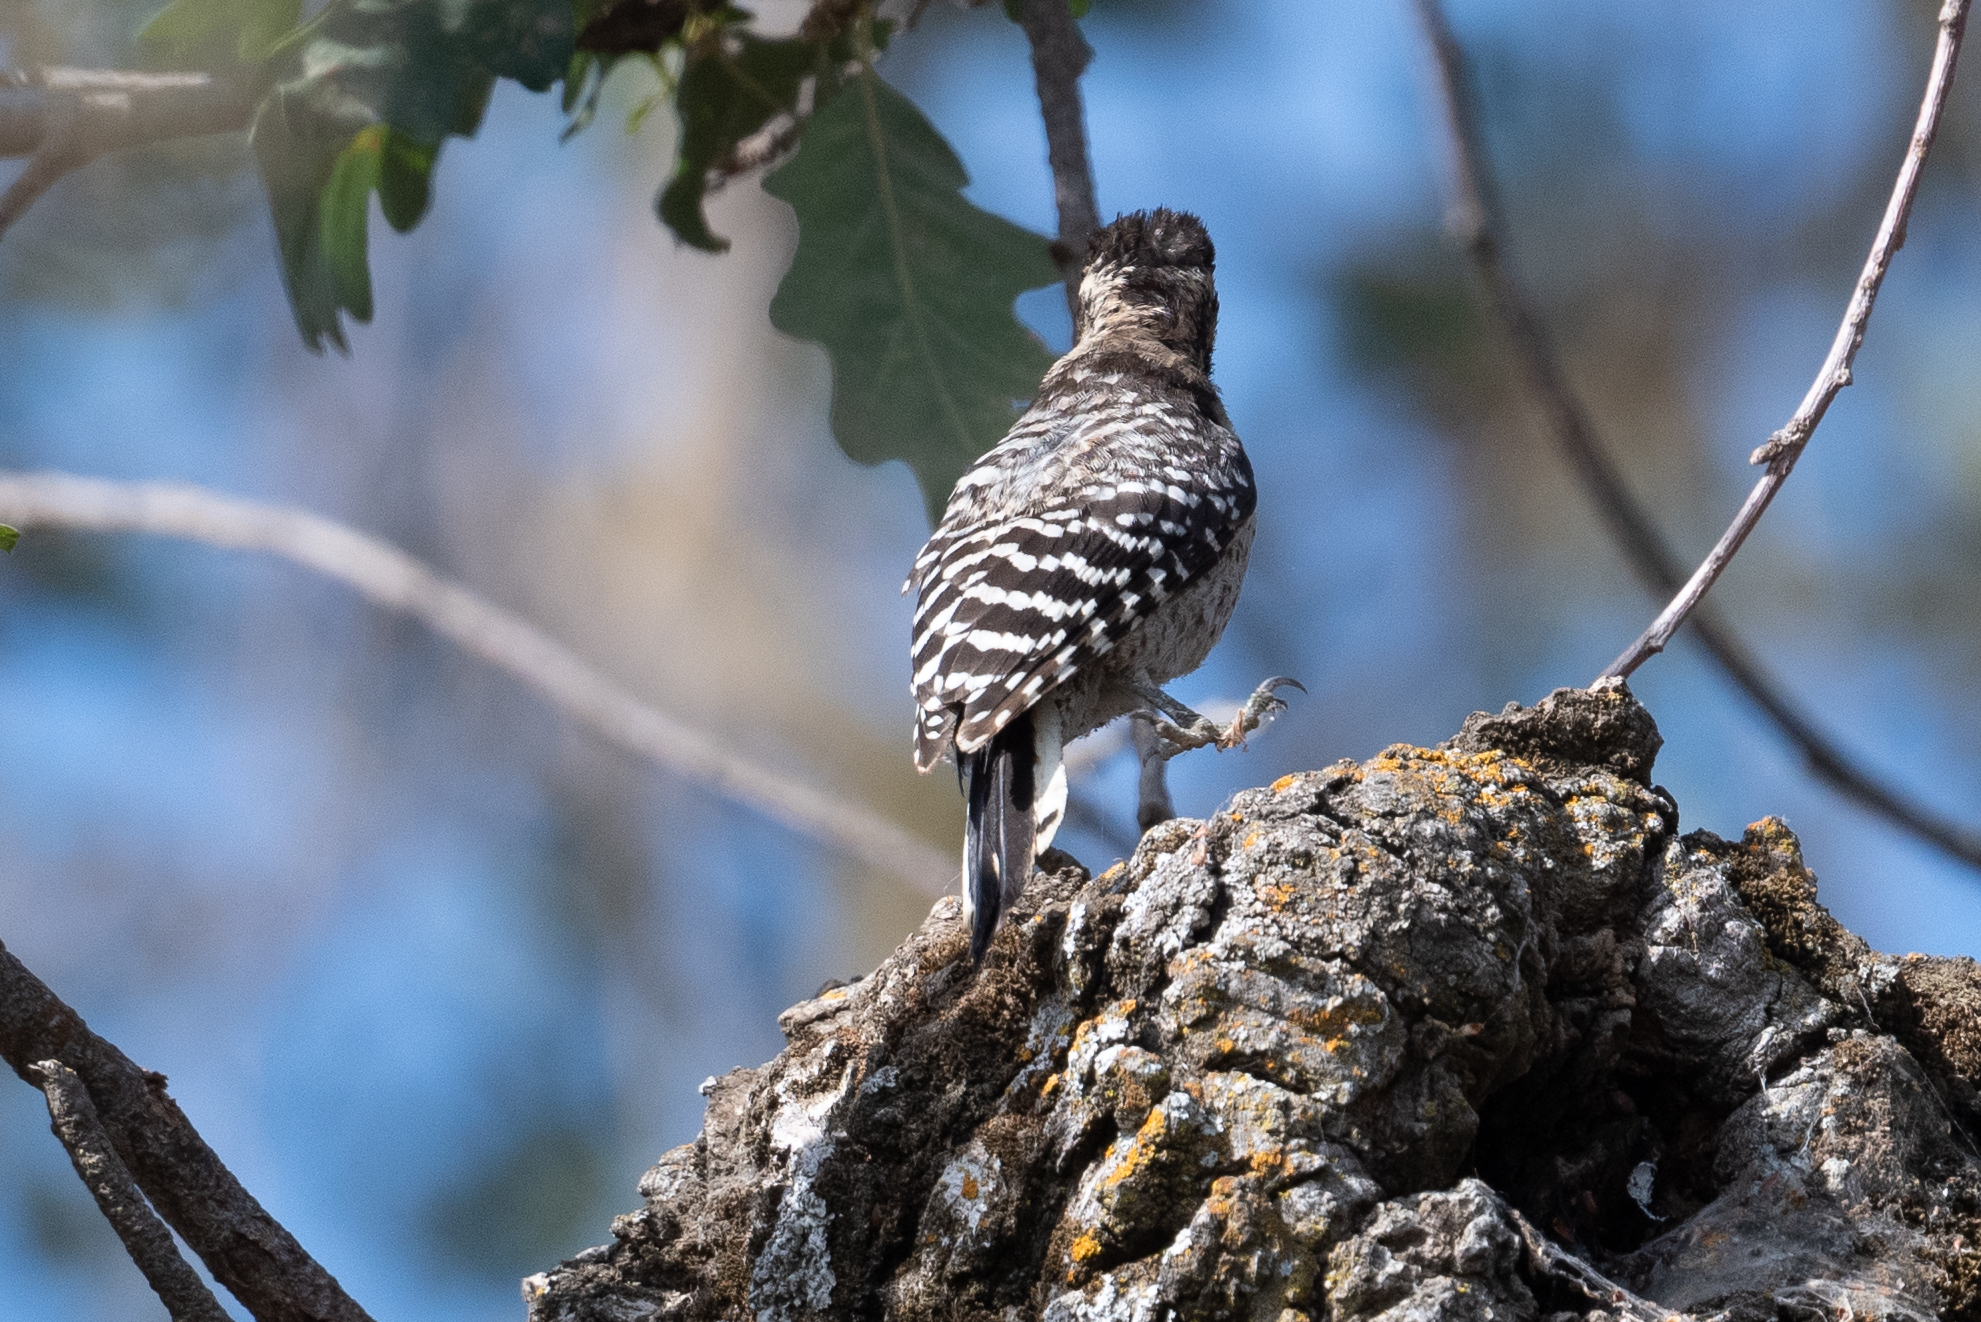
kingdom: Animalia
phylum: Chordata
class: Aves
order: Piciformes
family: Picidae
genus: Dryobates
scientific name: Dryobates nuttallii
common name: Nuttall's woodpecker
